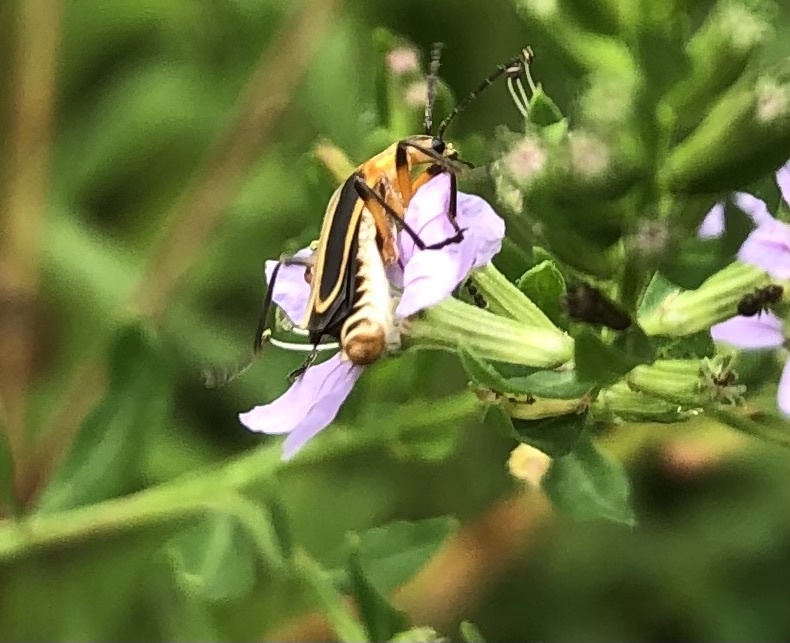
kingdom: Animalia
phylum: Arthropoda
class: Insecta
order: Coleoptera
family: Cantharidae
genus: Chauliognathus
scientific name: Chauliognathus marginatus
